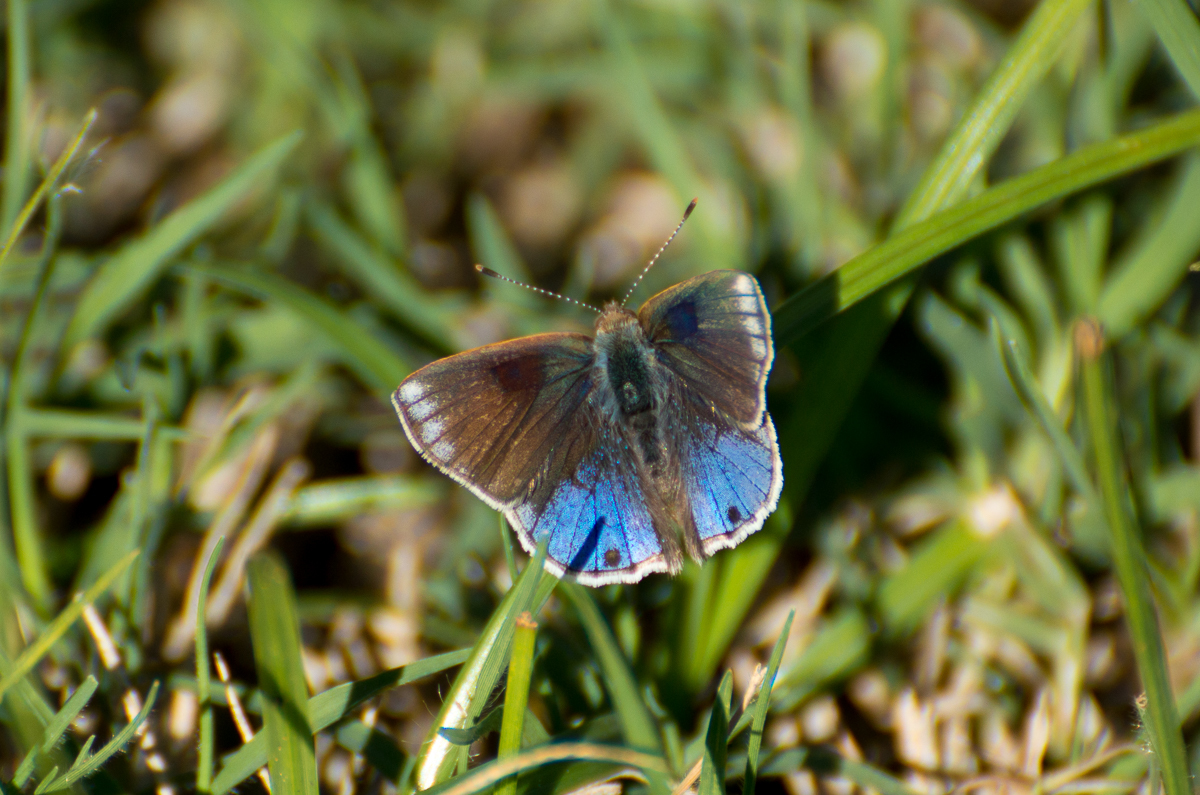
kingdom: Animalia
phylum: Arthropoda
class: Insecta
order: Lepidoptera
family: Lycaenidae
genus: Strymon
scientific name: Strymon bazochii
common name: Lantana scrub-hairstreak
